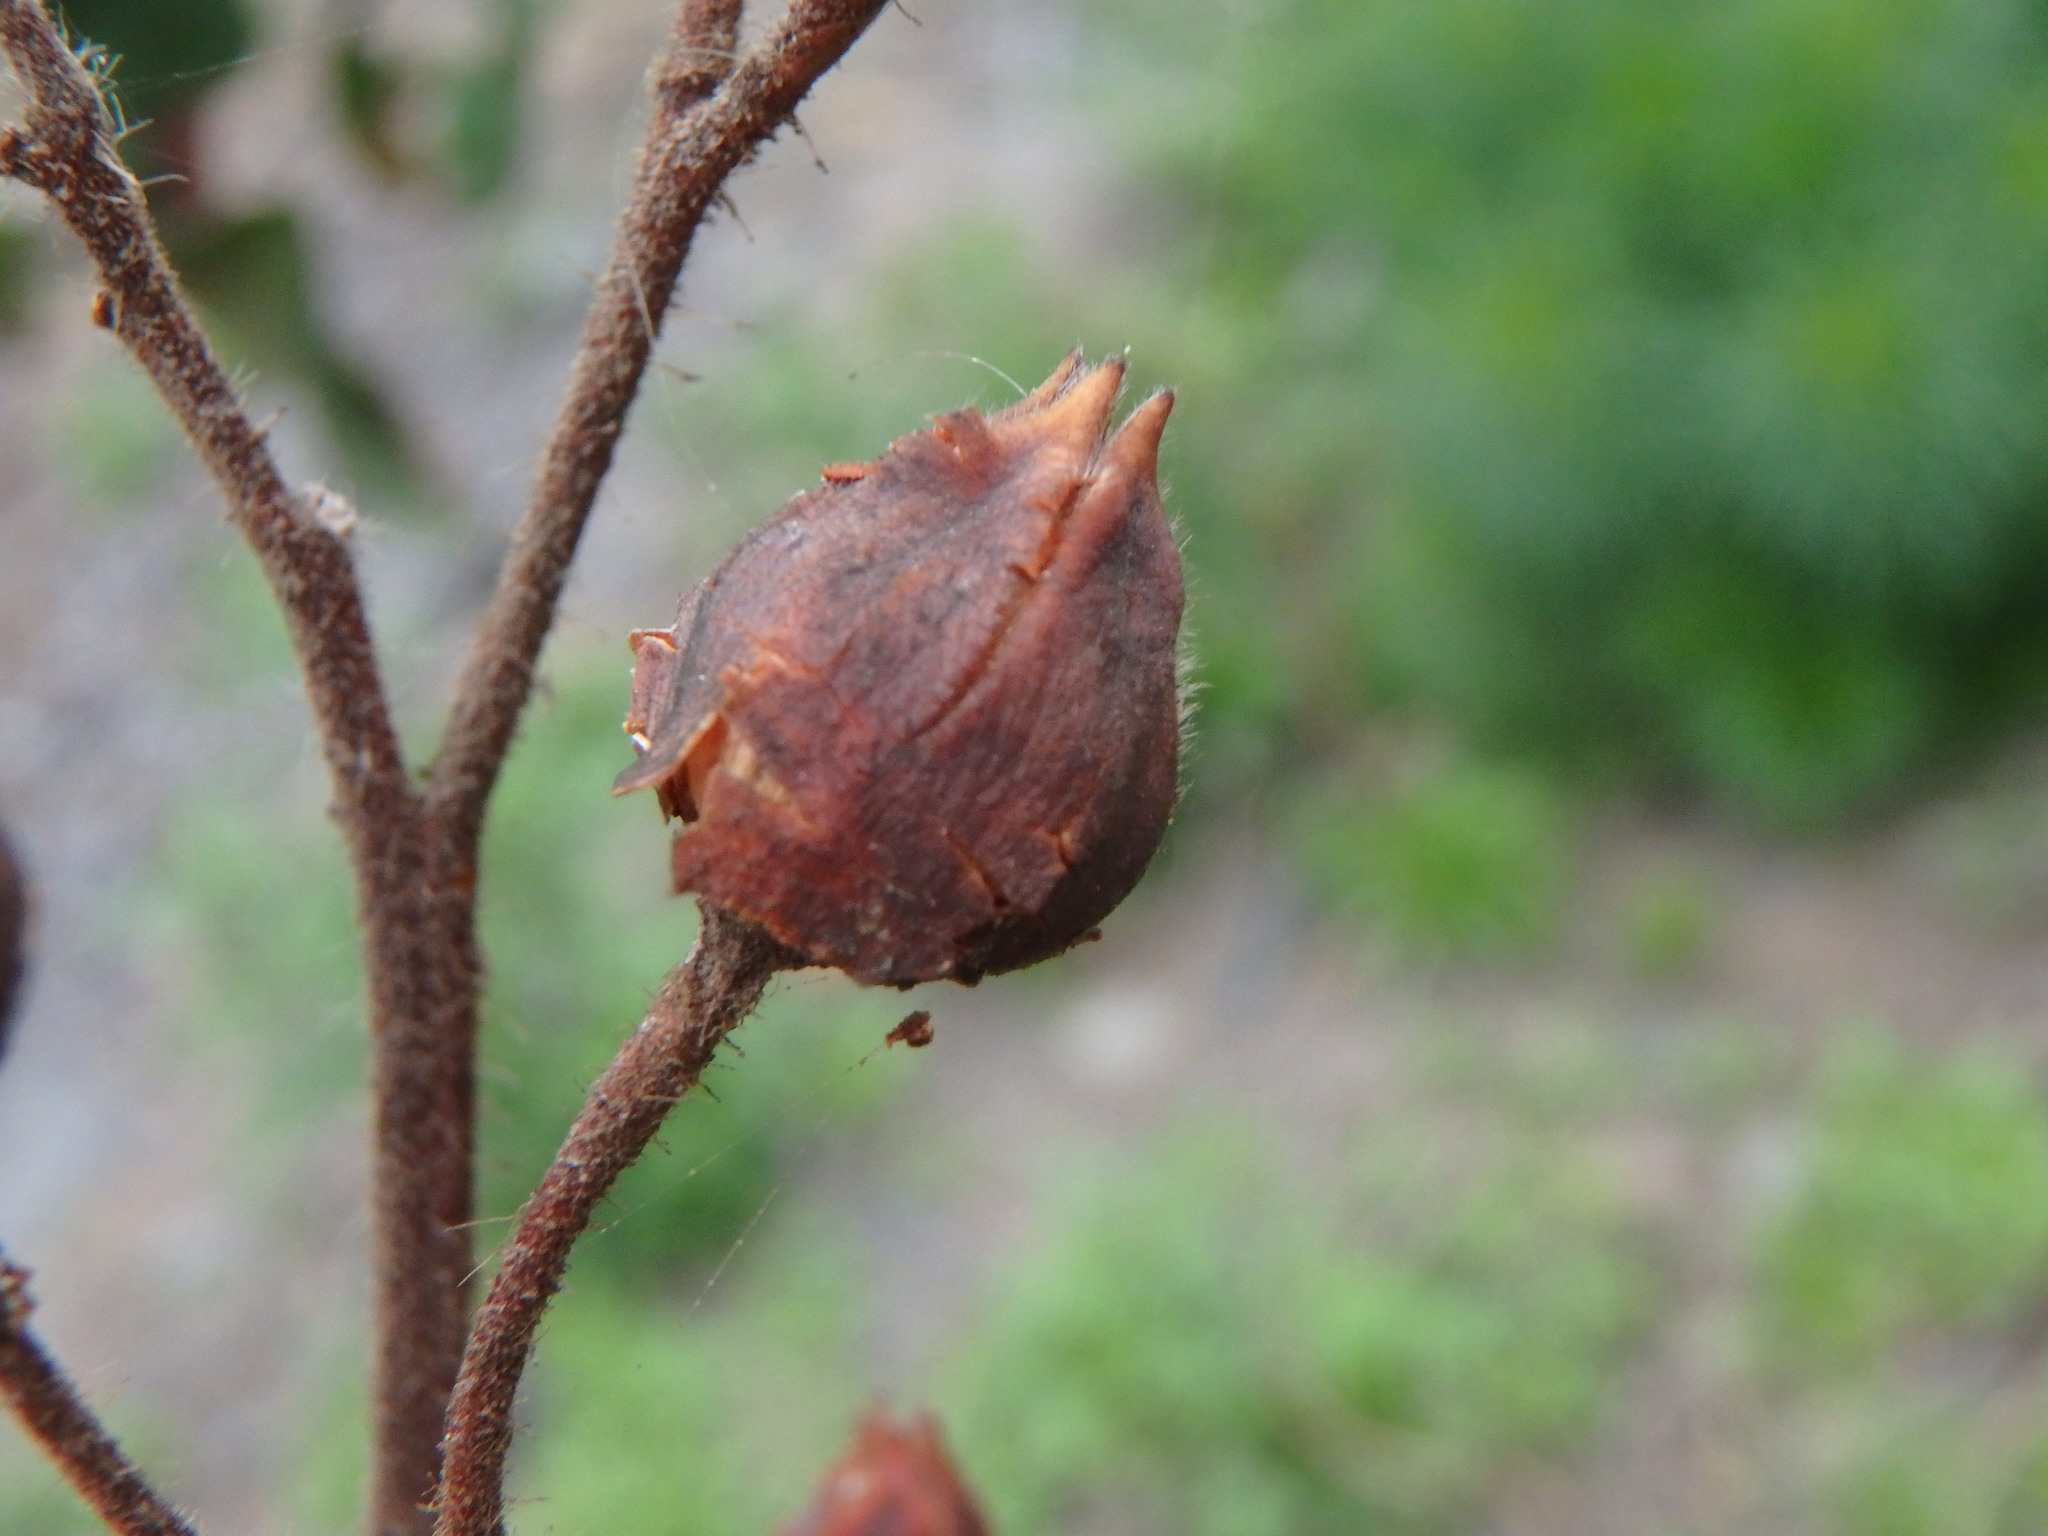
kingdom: Plantae
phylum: Tracheophyta
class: Magnoliopsida
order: Malvales
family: Cistaceae
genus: Cistus
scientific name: Cistus symphytifolius
